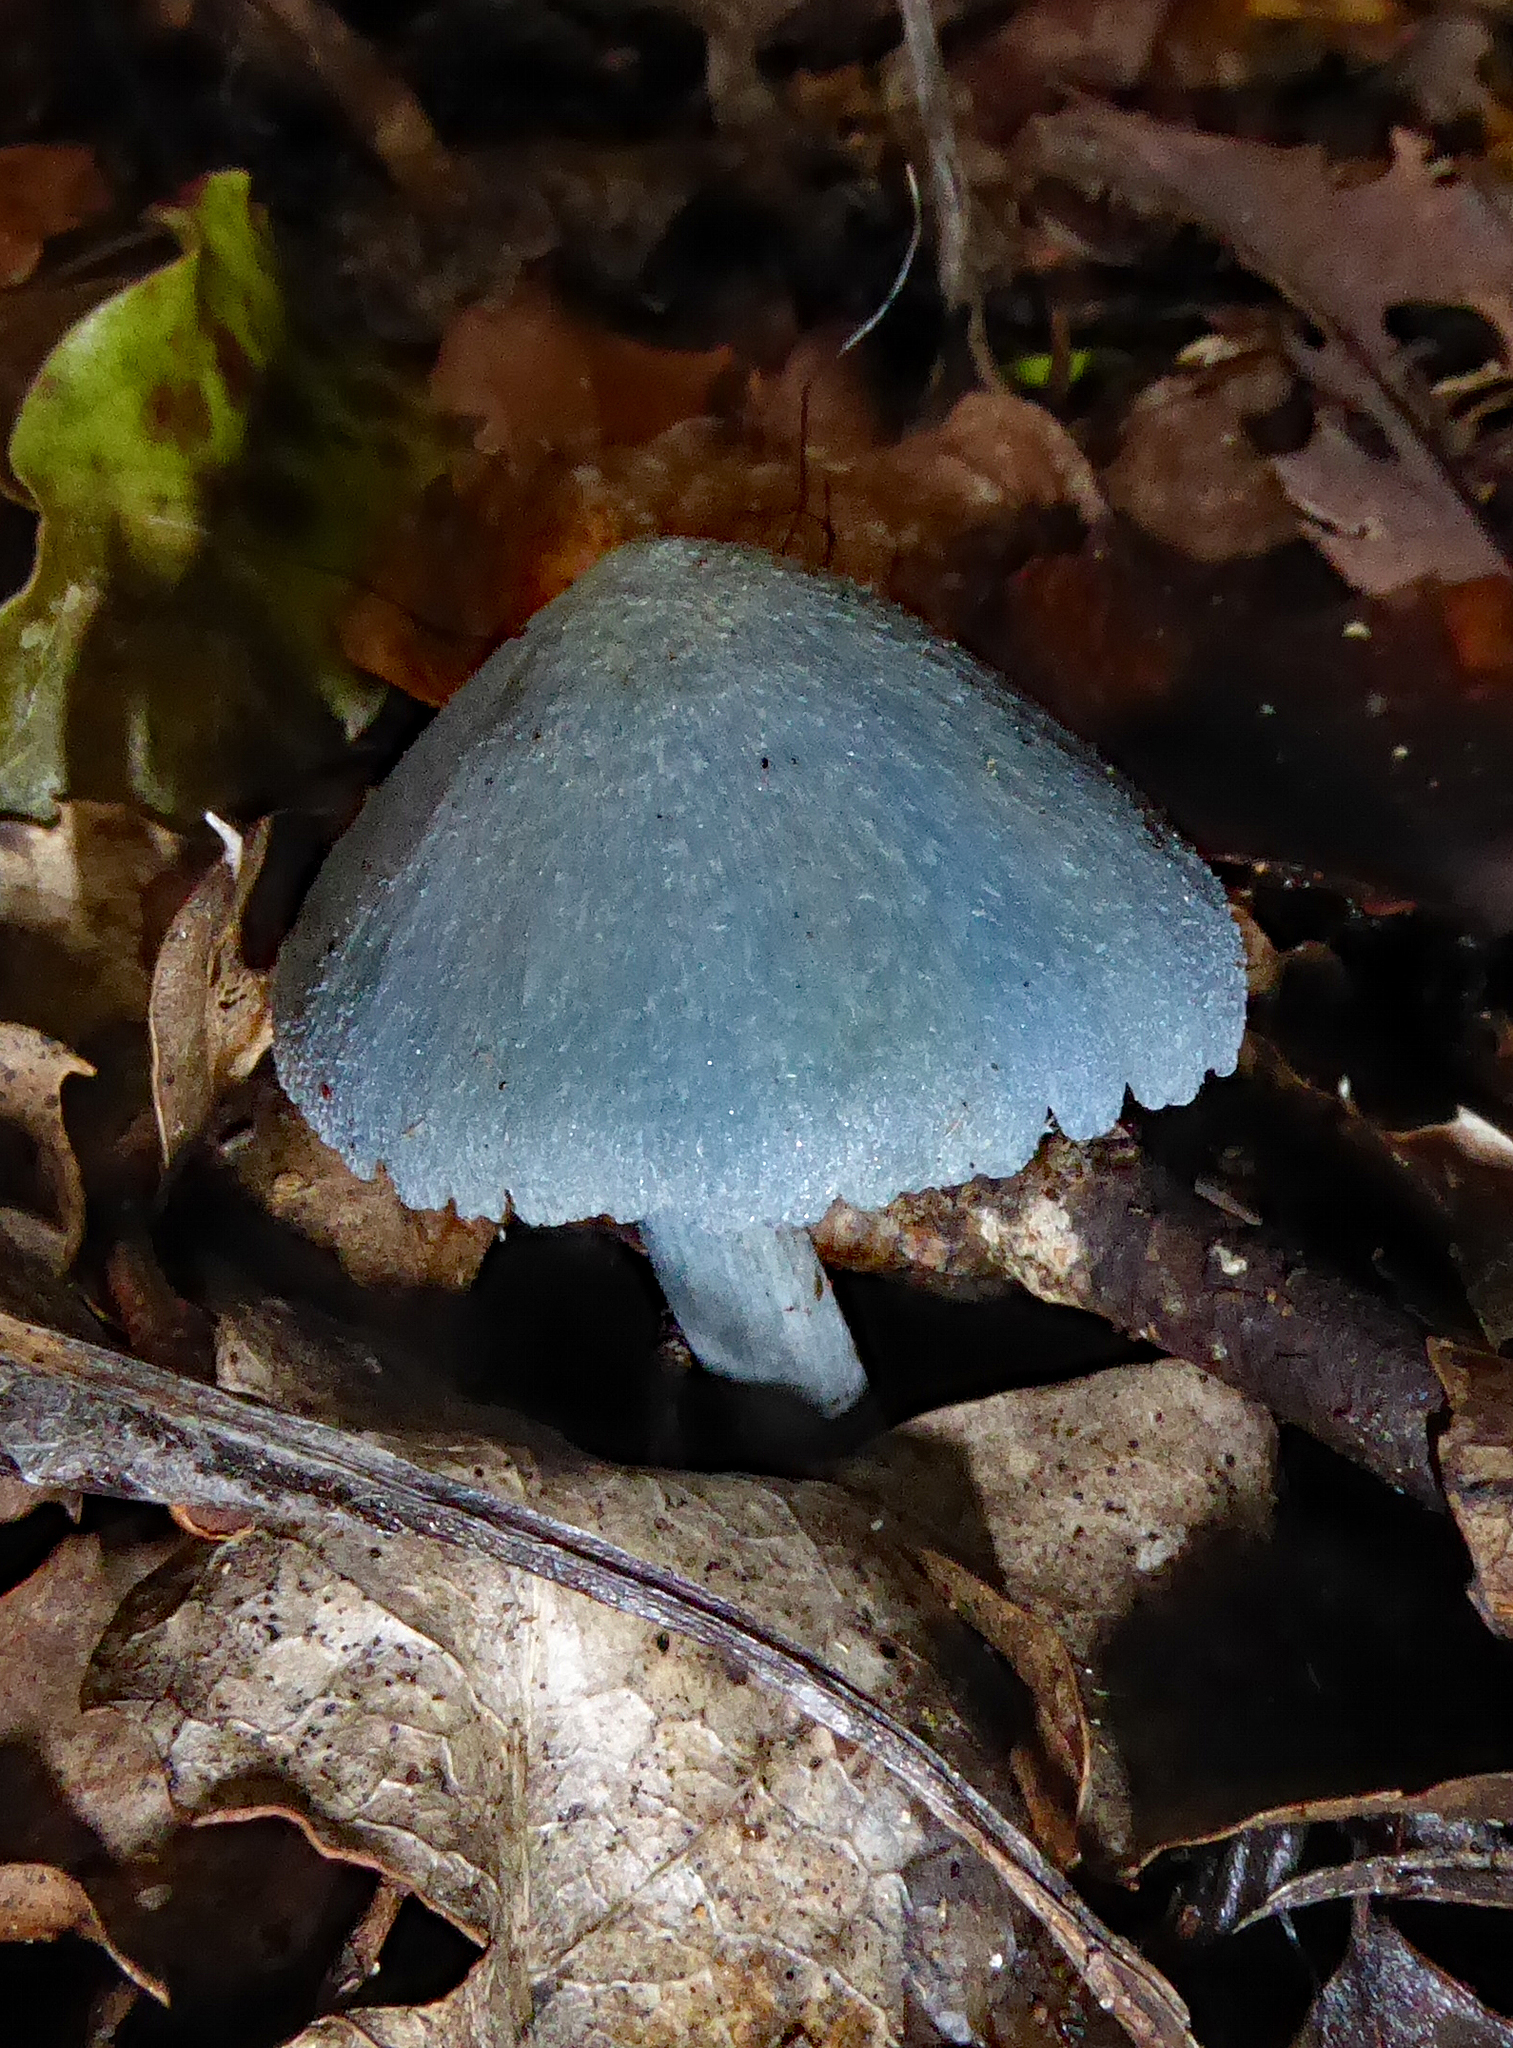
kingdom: Fungi
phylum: Basidiomycota
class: Agaricomycetes
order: Agaricales
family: Entolomataceae
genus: Entoloma
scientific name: Entoloma hochstetteri
